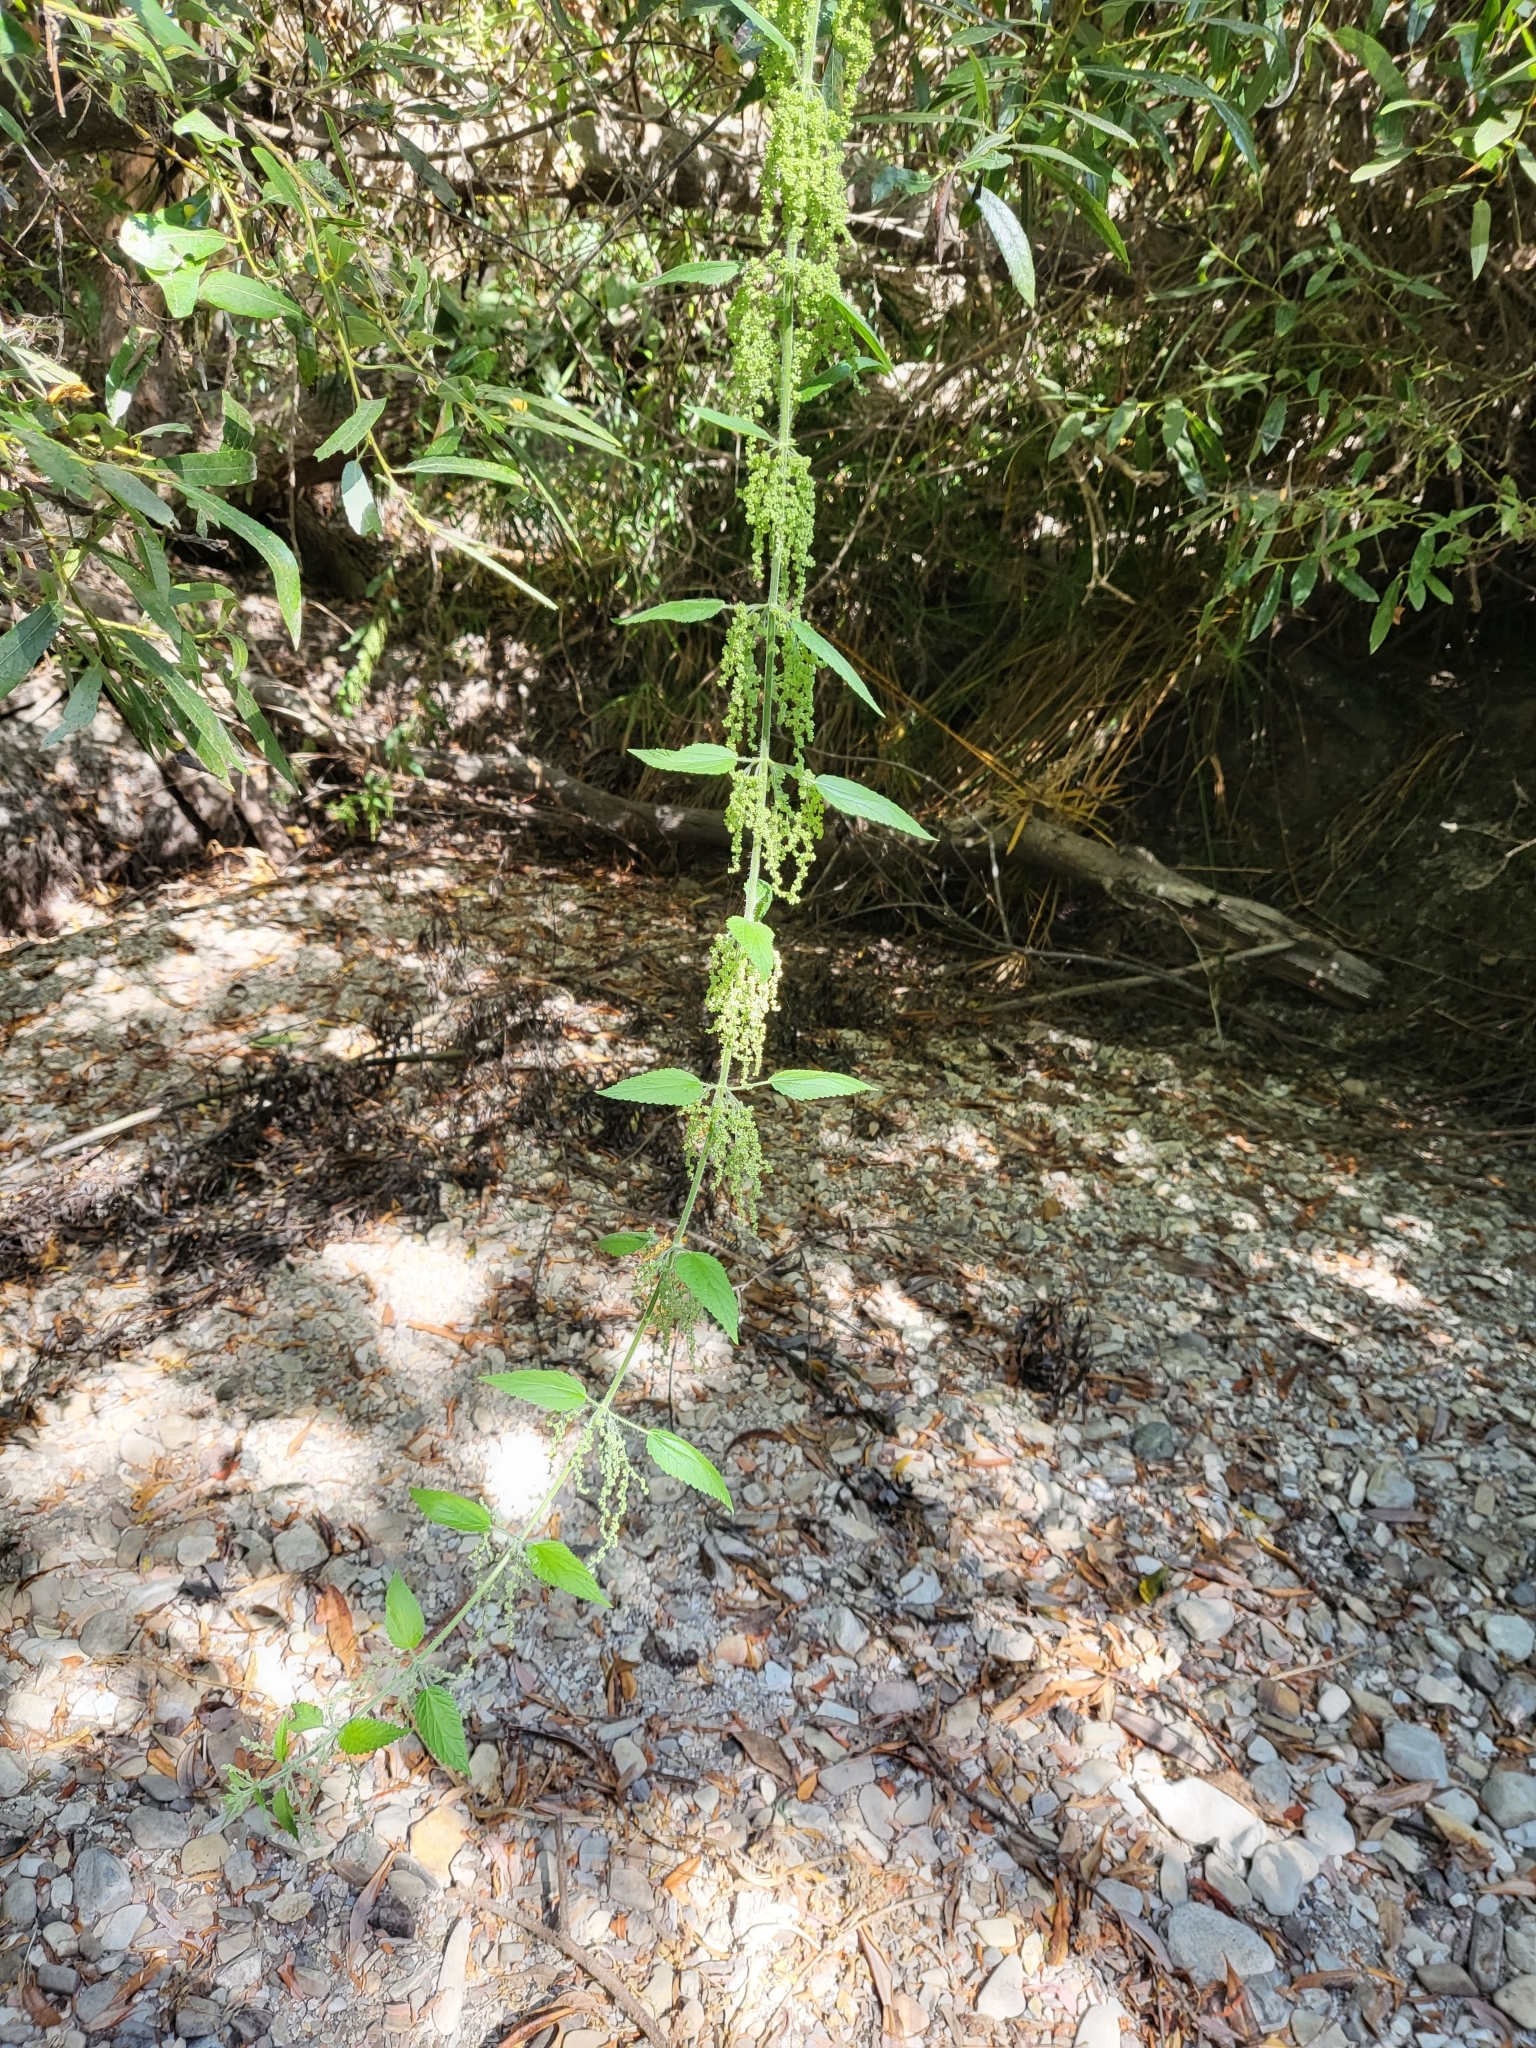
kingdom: Plantae
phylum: Tracheophyta
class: Magnoliopsida
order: Rosales
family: Urticaceae
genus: Urtica
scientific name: Urtica gracilis
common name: Slender stinging nettle
